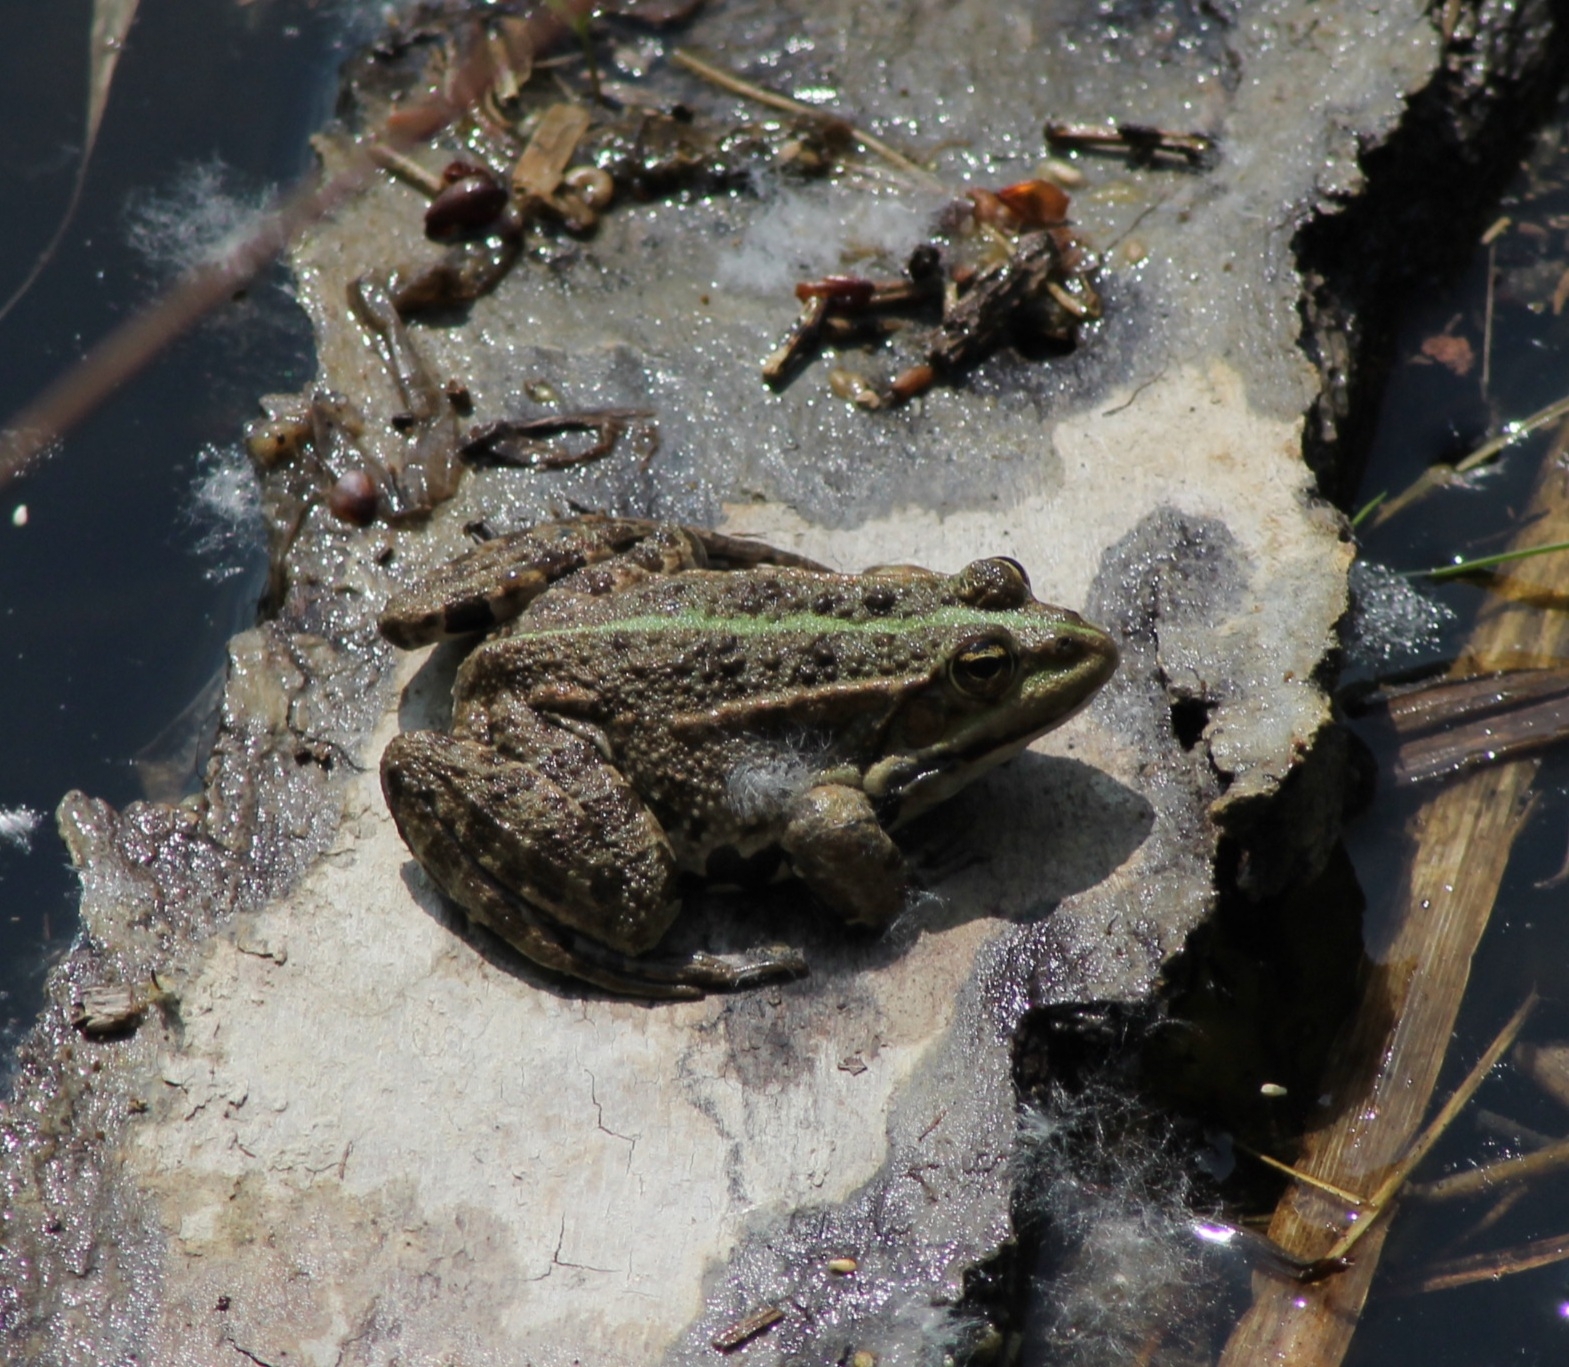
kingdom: Animalia
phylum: Chordata
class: Amphibia
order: Anura
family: Ranidae
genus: Pelophylax
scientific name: Pelophylax
